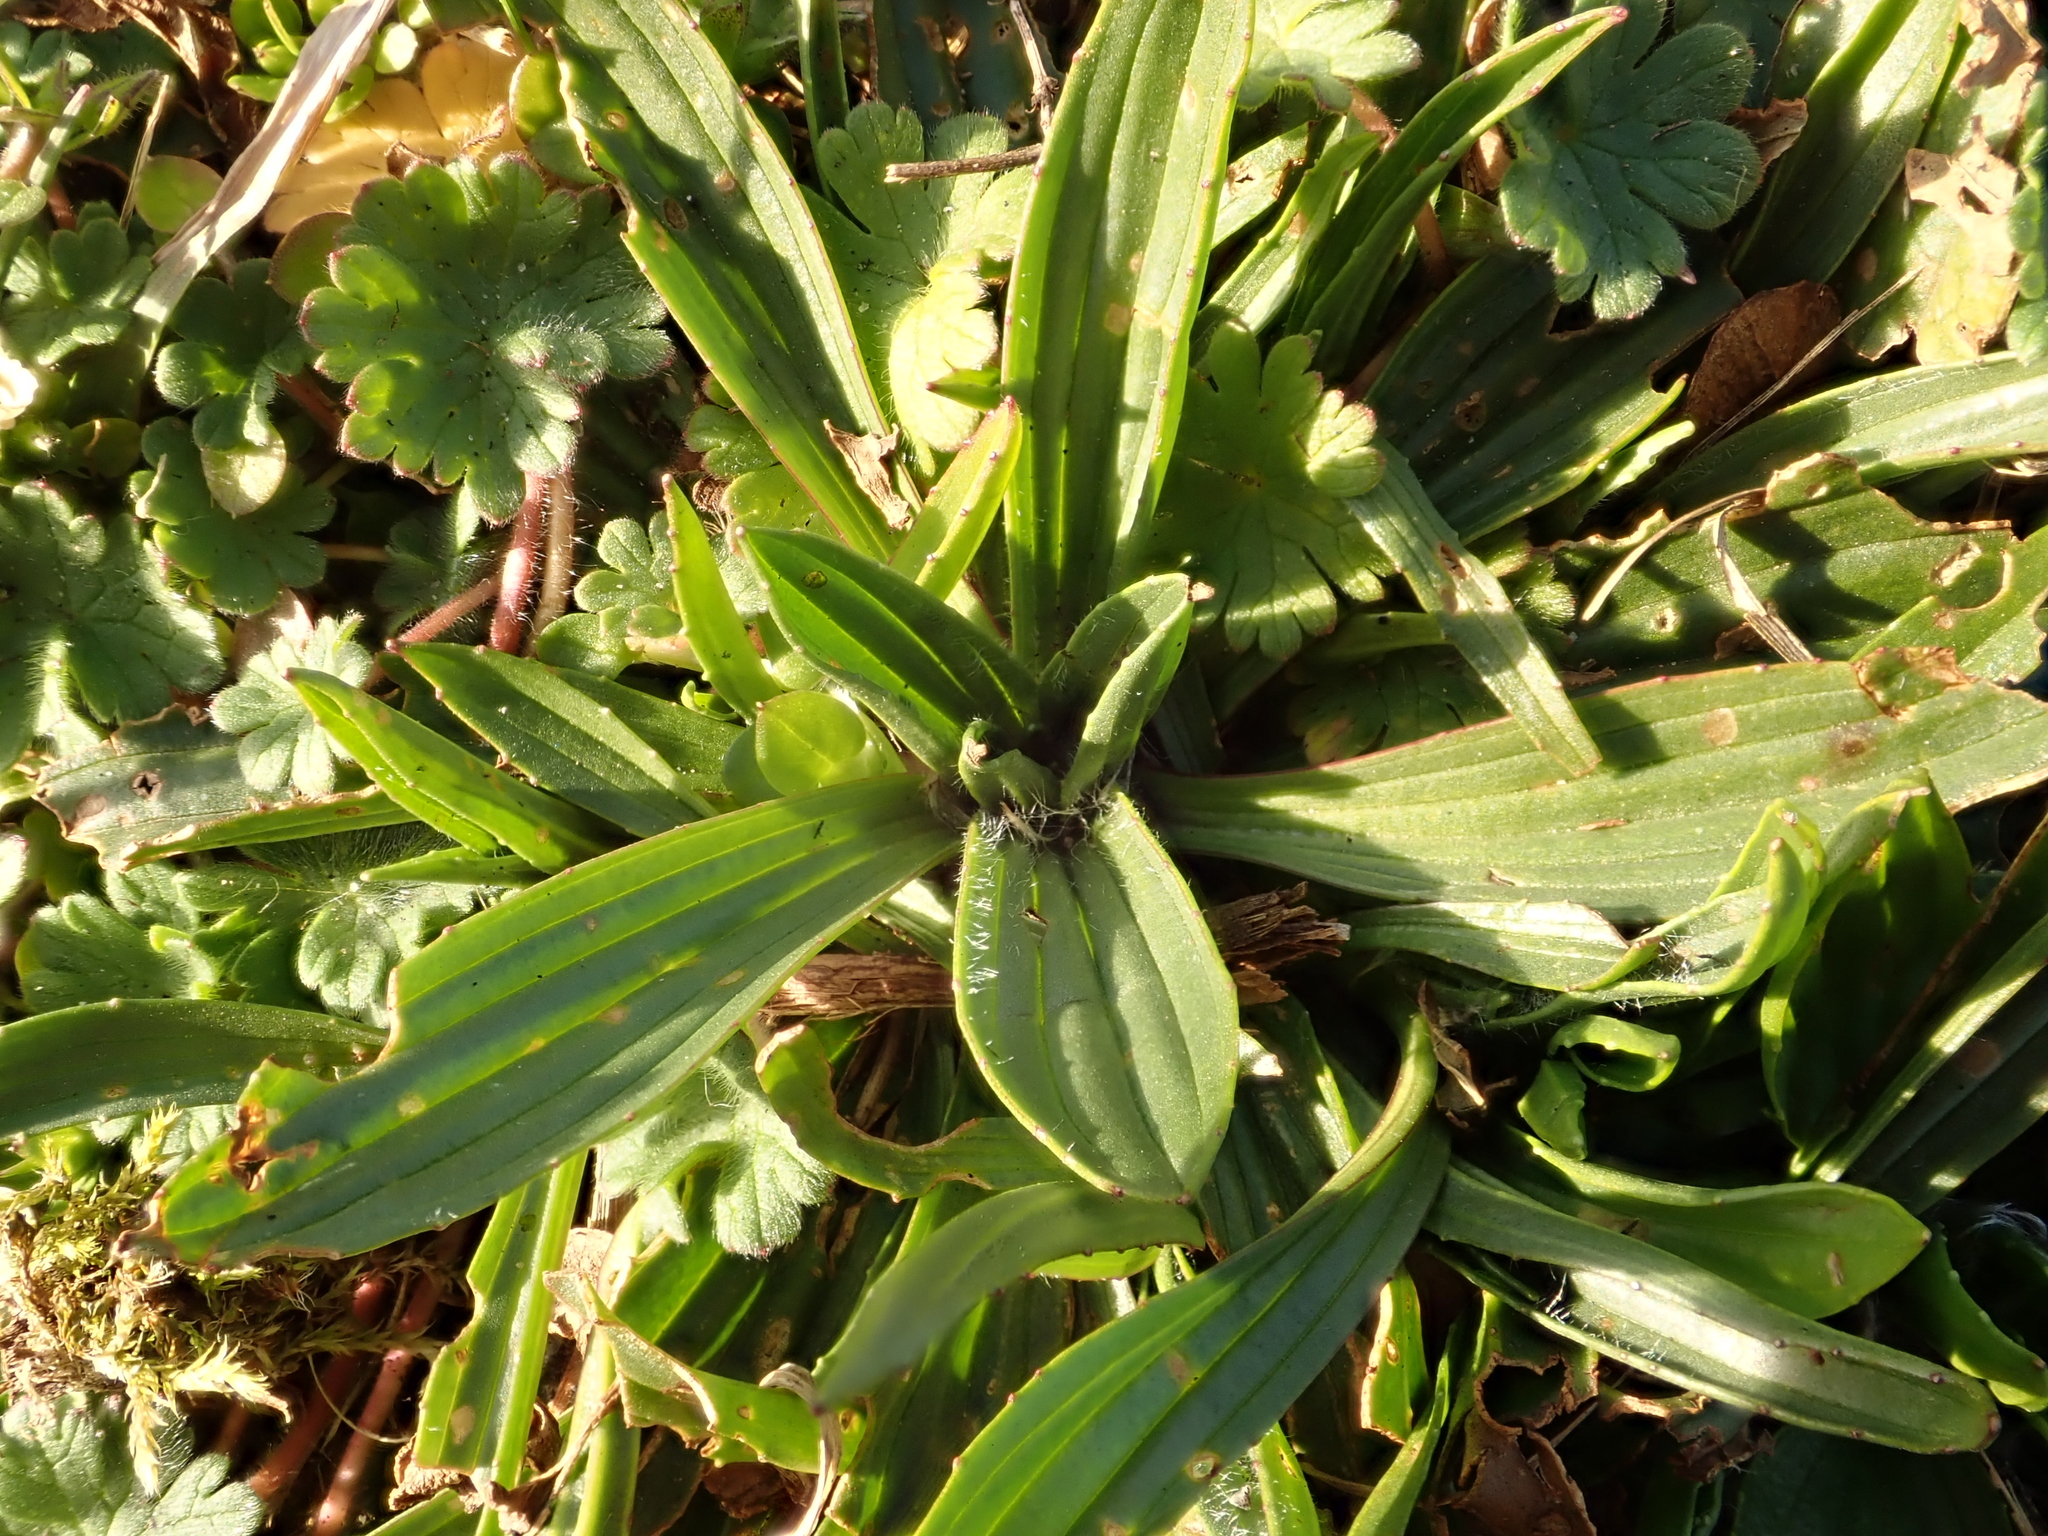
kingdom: Plantae
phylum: Tracheophyta
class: Magnoliopsida
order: Lamiales
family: Plantaginaceae
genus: Plantago
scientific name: Plantago lanceolata
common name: Ribwort plantain
